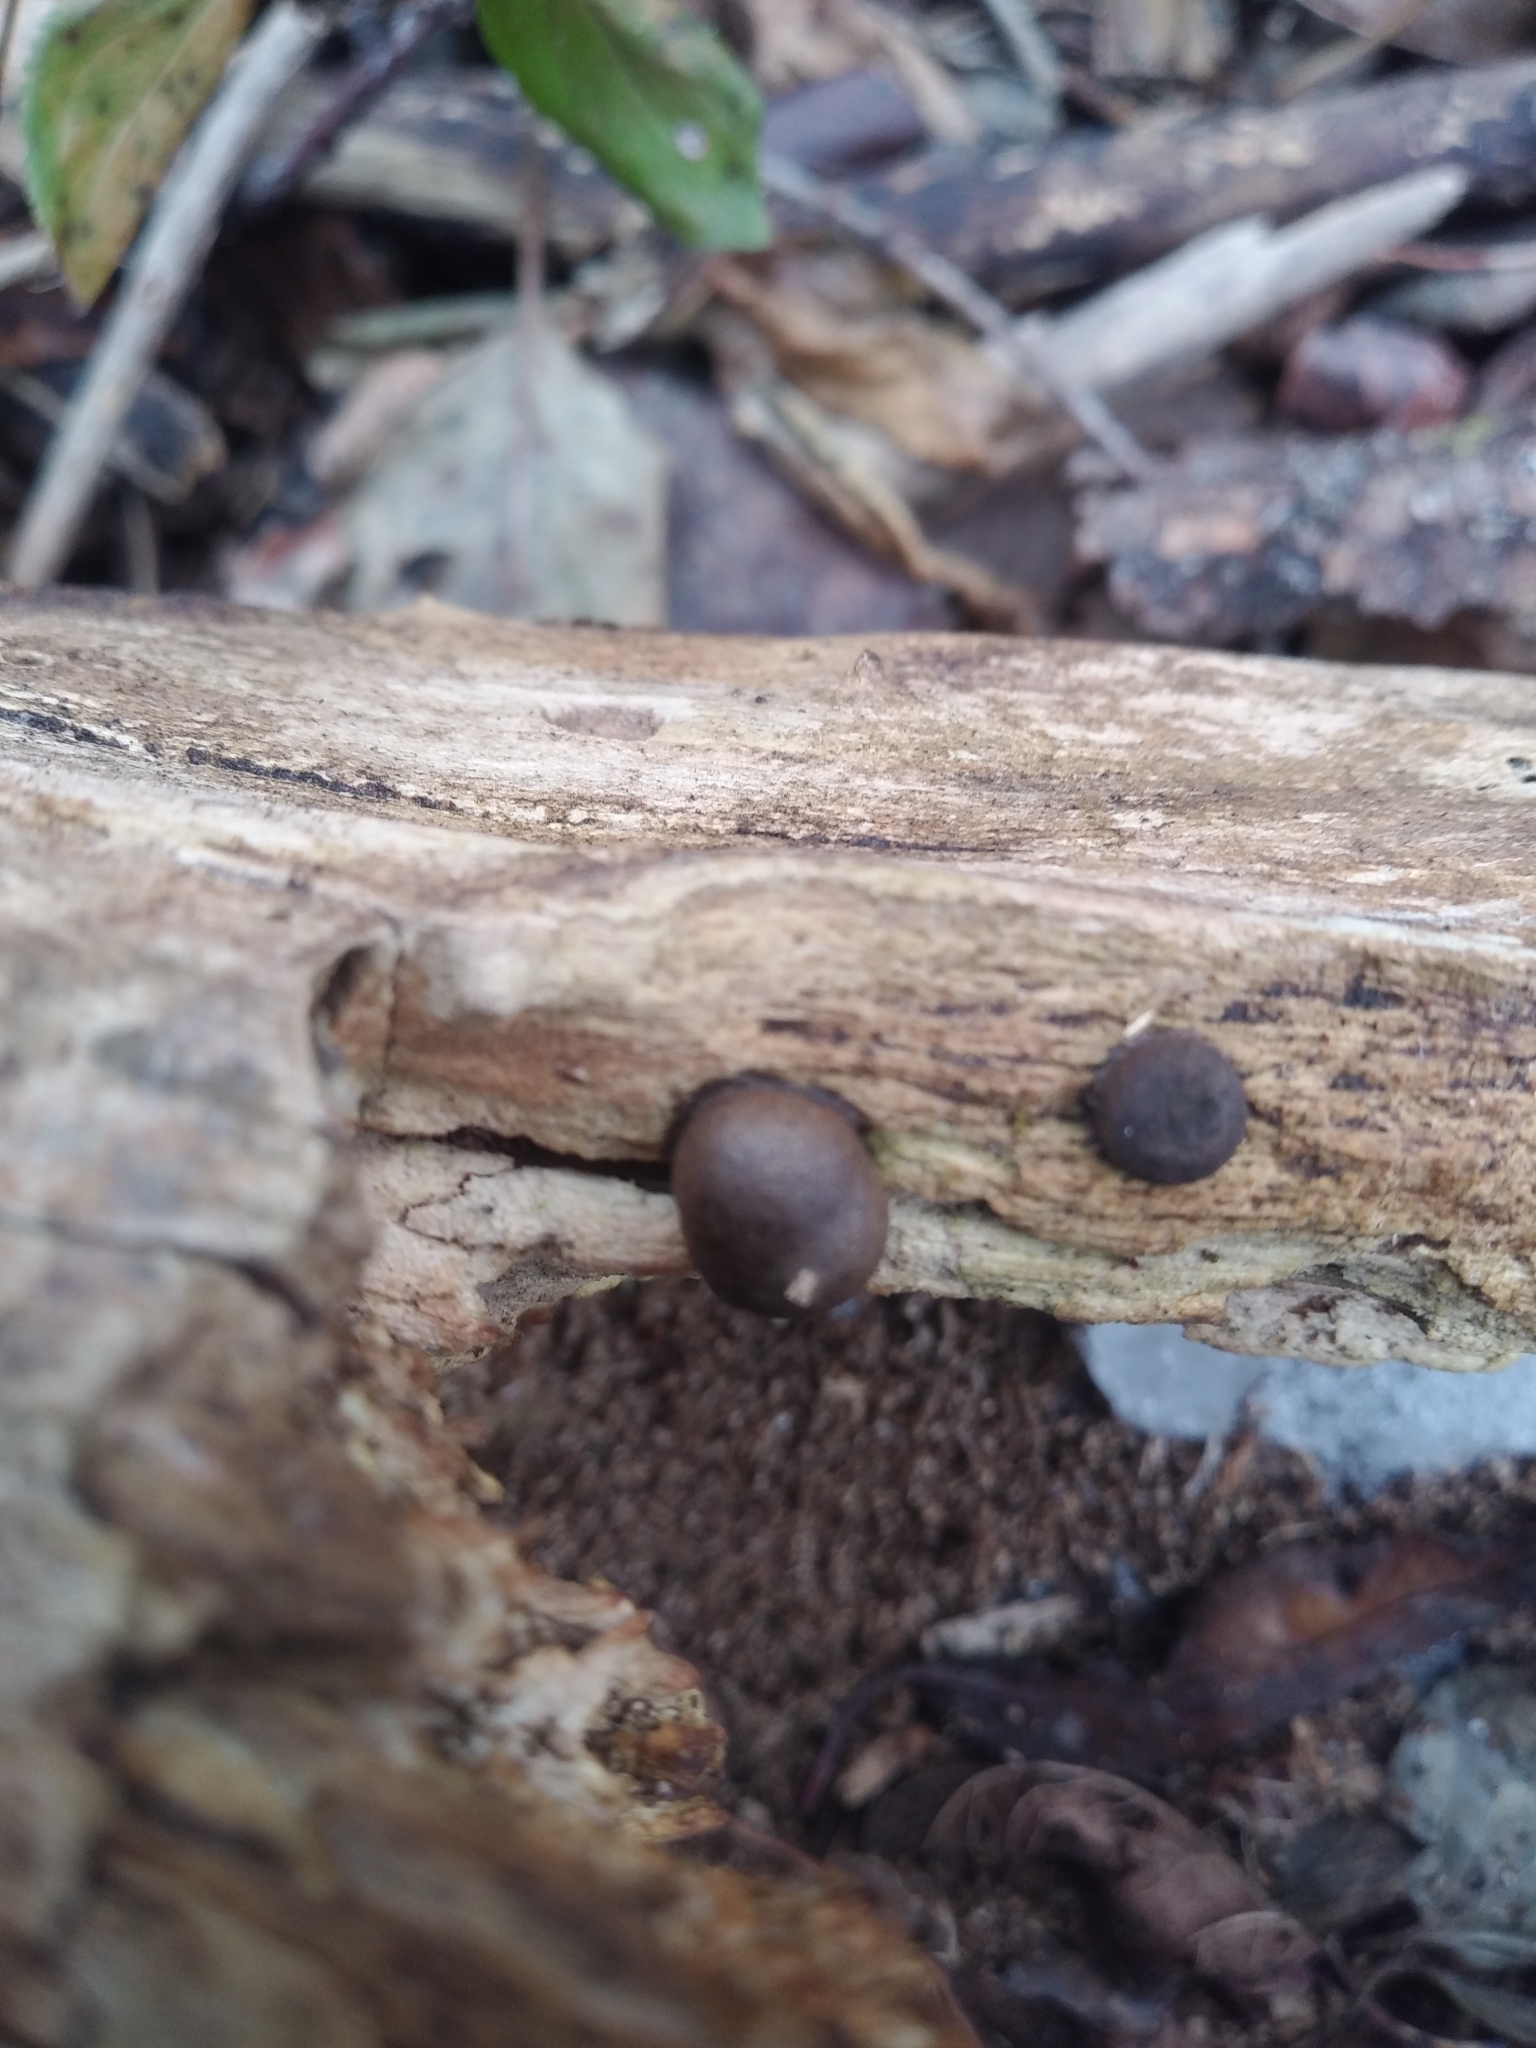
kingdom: Protozoa
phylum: Mycetozoa
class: Myxomycetes
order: Cribrariales
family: Tubiferaceae
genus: Lycogala
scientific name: Lycogala epidendrum
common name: Wolf's milk
